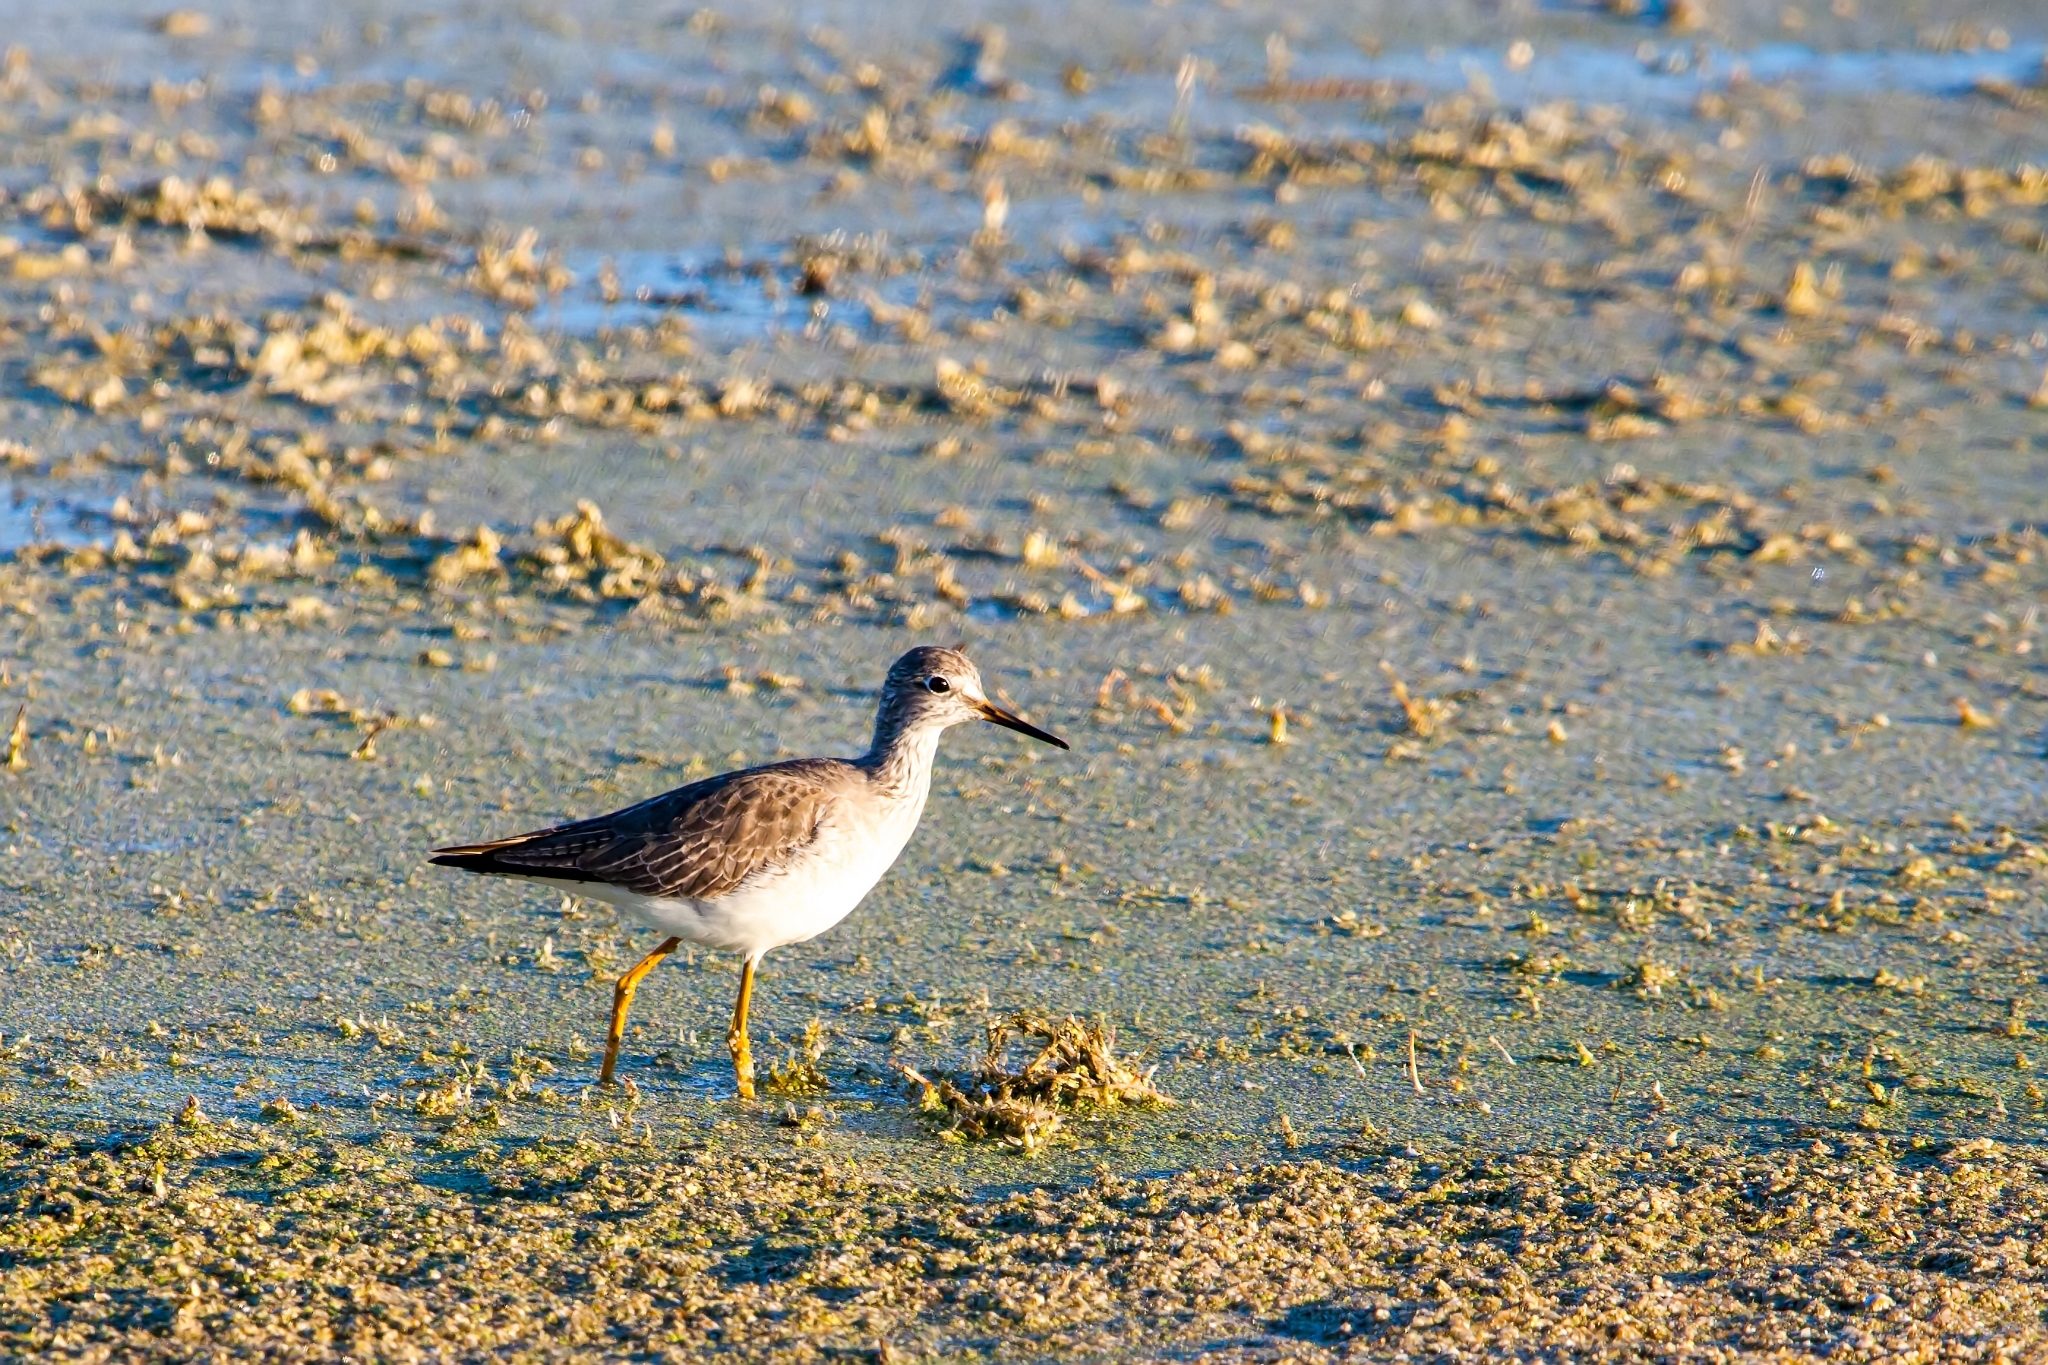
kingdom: Animalia
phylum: Chordata
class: Aves
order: Charadriiformes
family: Scolopacidae
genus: Tringa
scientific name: Tringa flavipes
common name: Lesser yellowlegs
